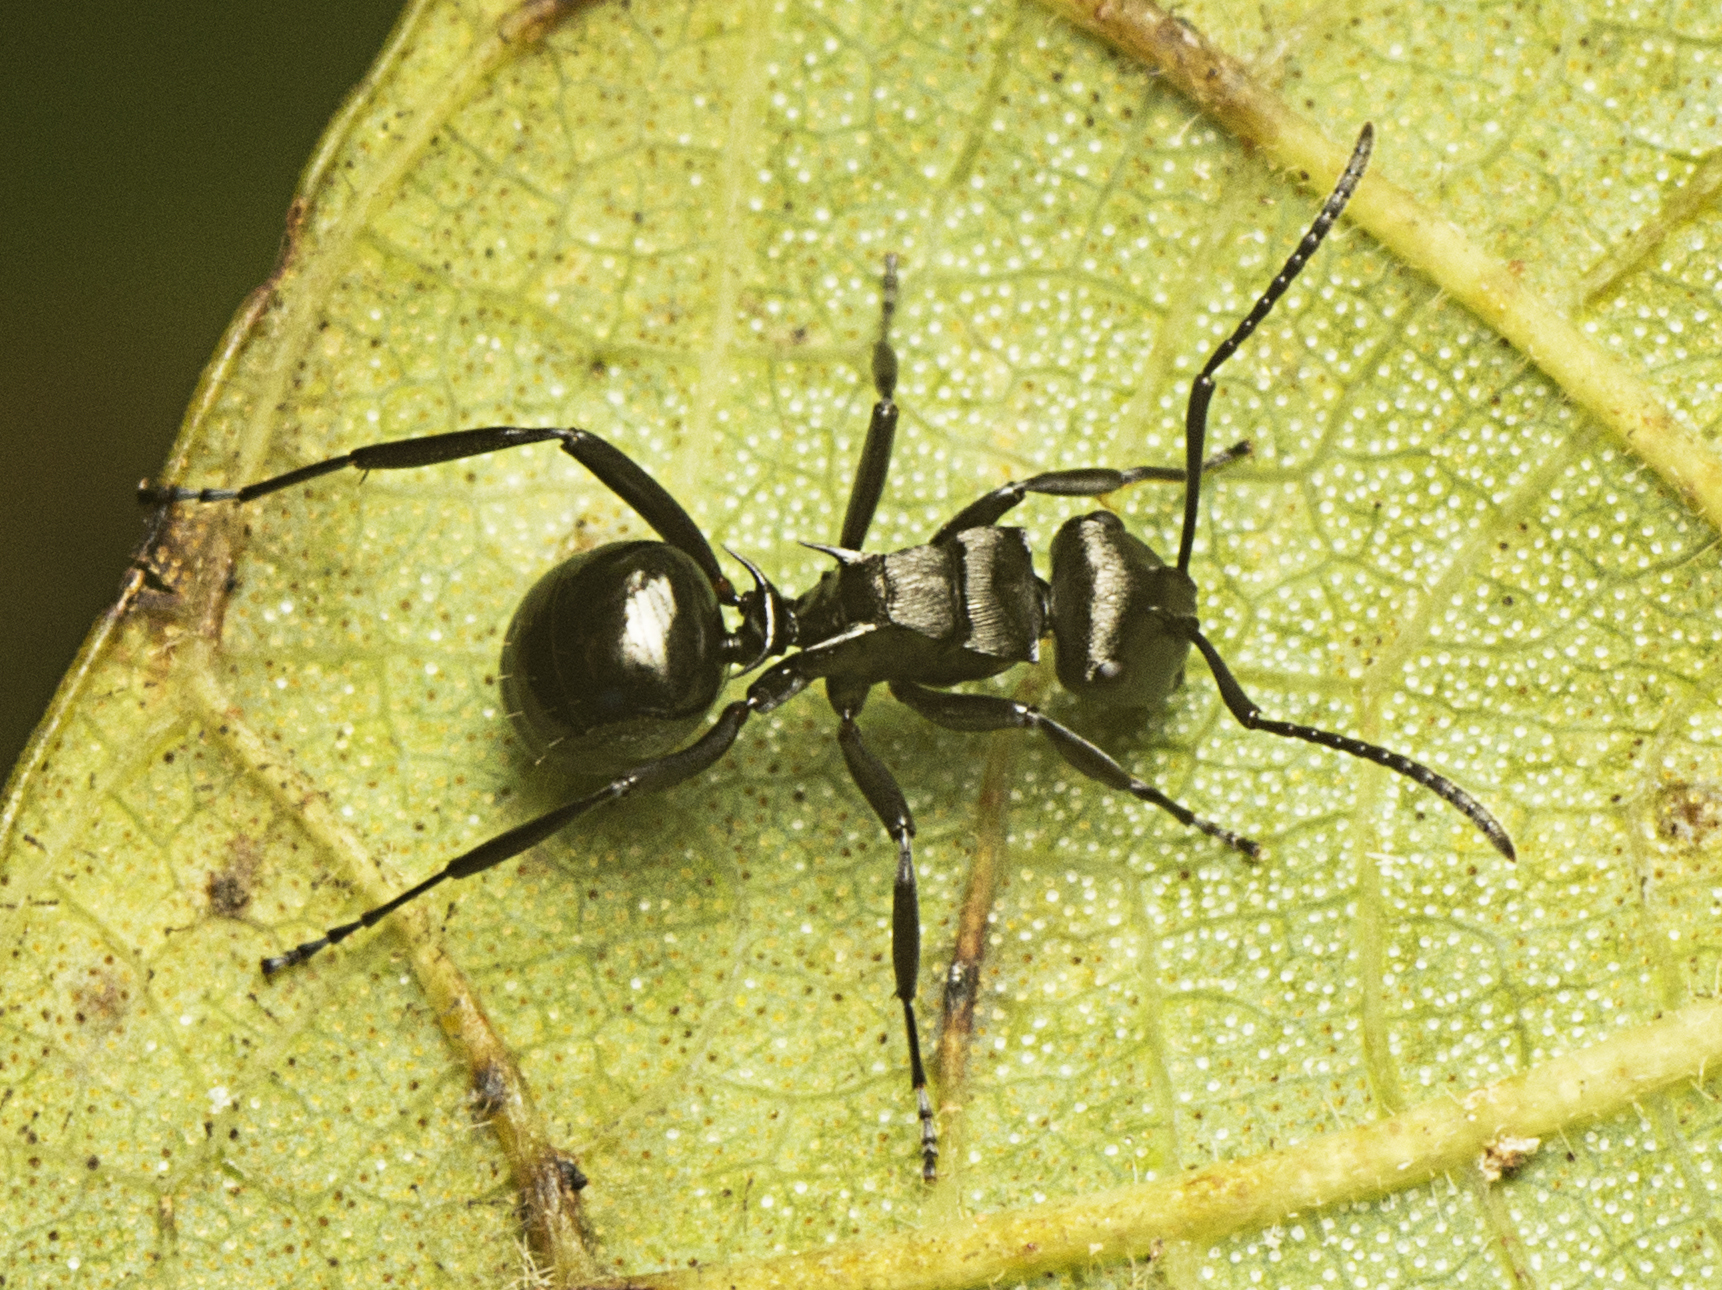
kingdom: Animalia
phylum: Arthropoda
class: Insecta
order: Hymenoptera
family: Formicidae
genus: Polyrhachis
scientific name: Polyrhachis clio
